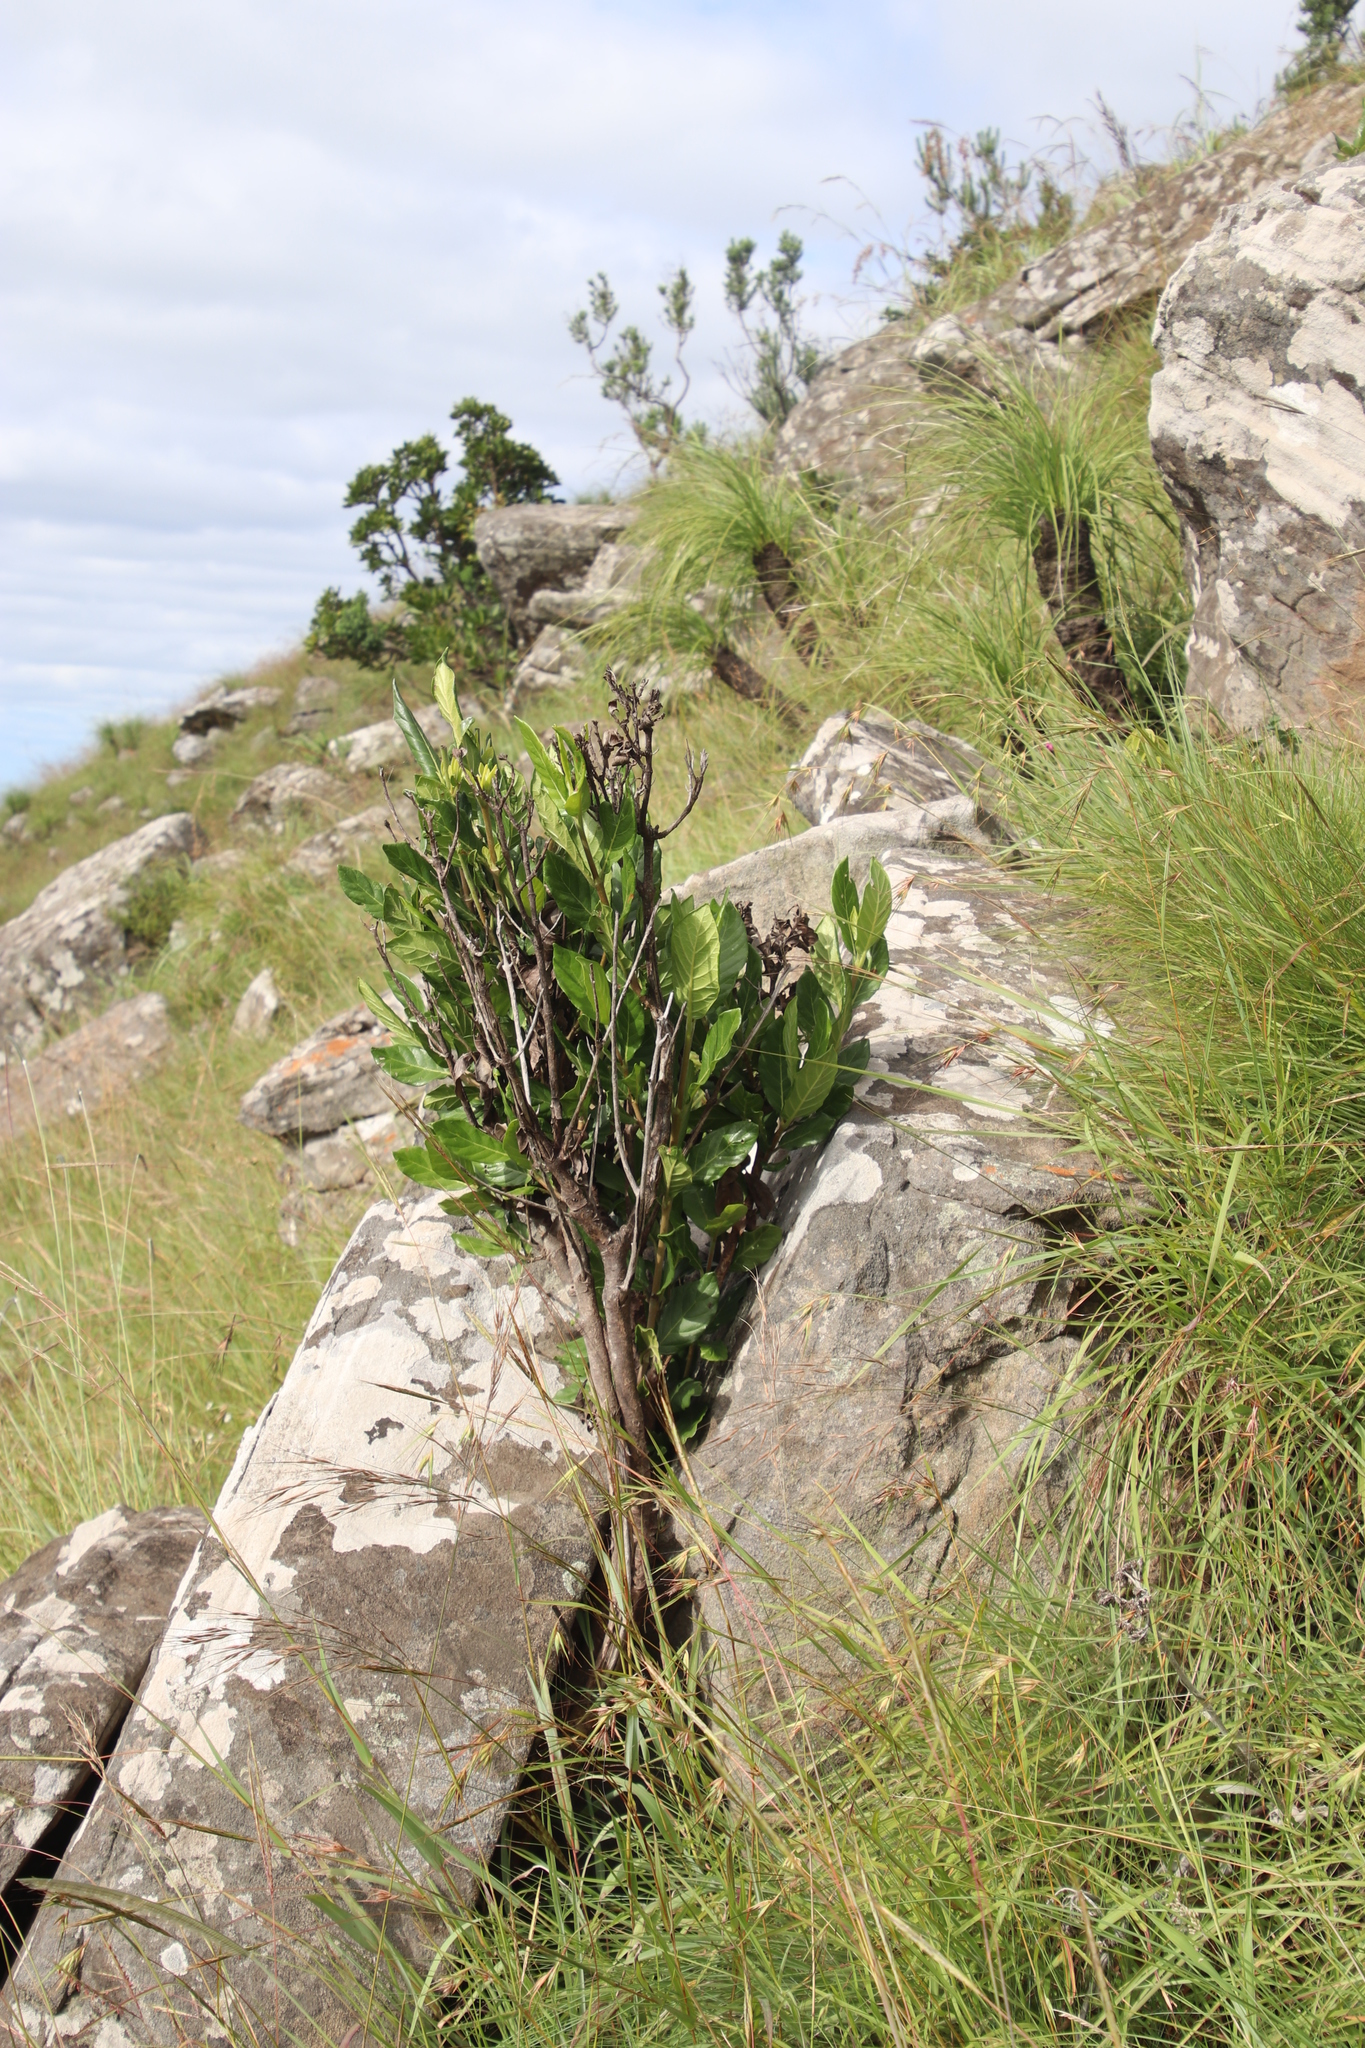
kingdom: Plantae
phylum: Tracheophyta
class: Magnoliopsida
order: Gentianales
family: Rubiaceae
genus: Burchellia
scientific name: Burchellia bubalina
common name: Wild pomegranate
